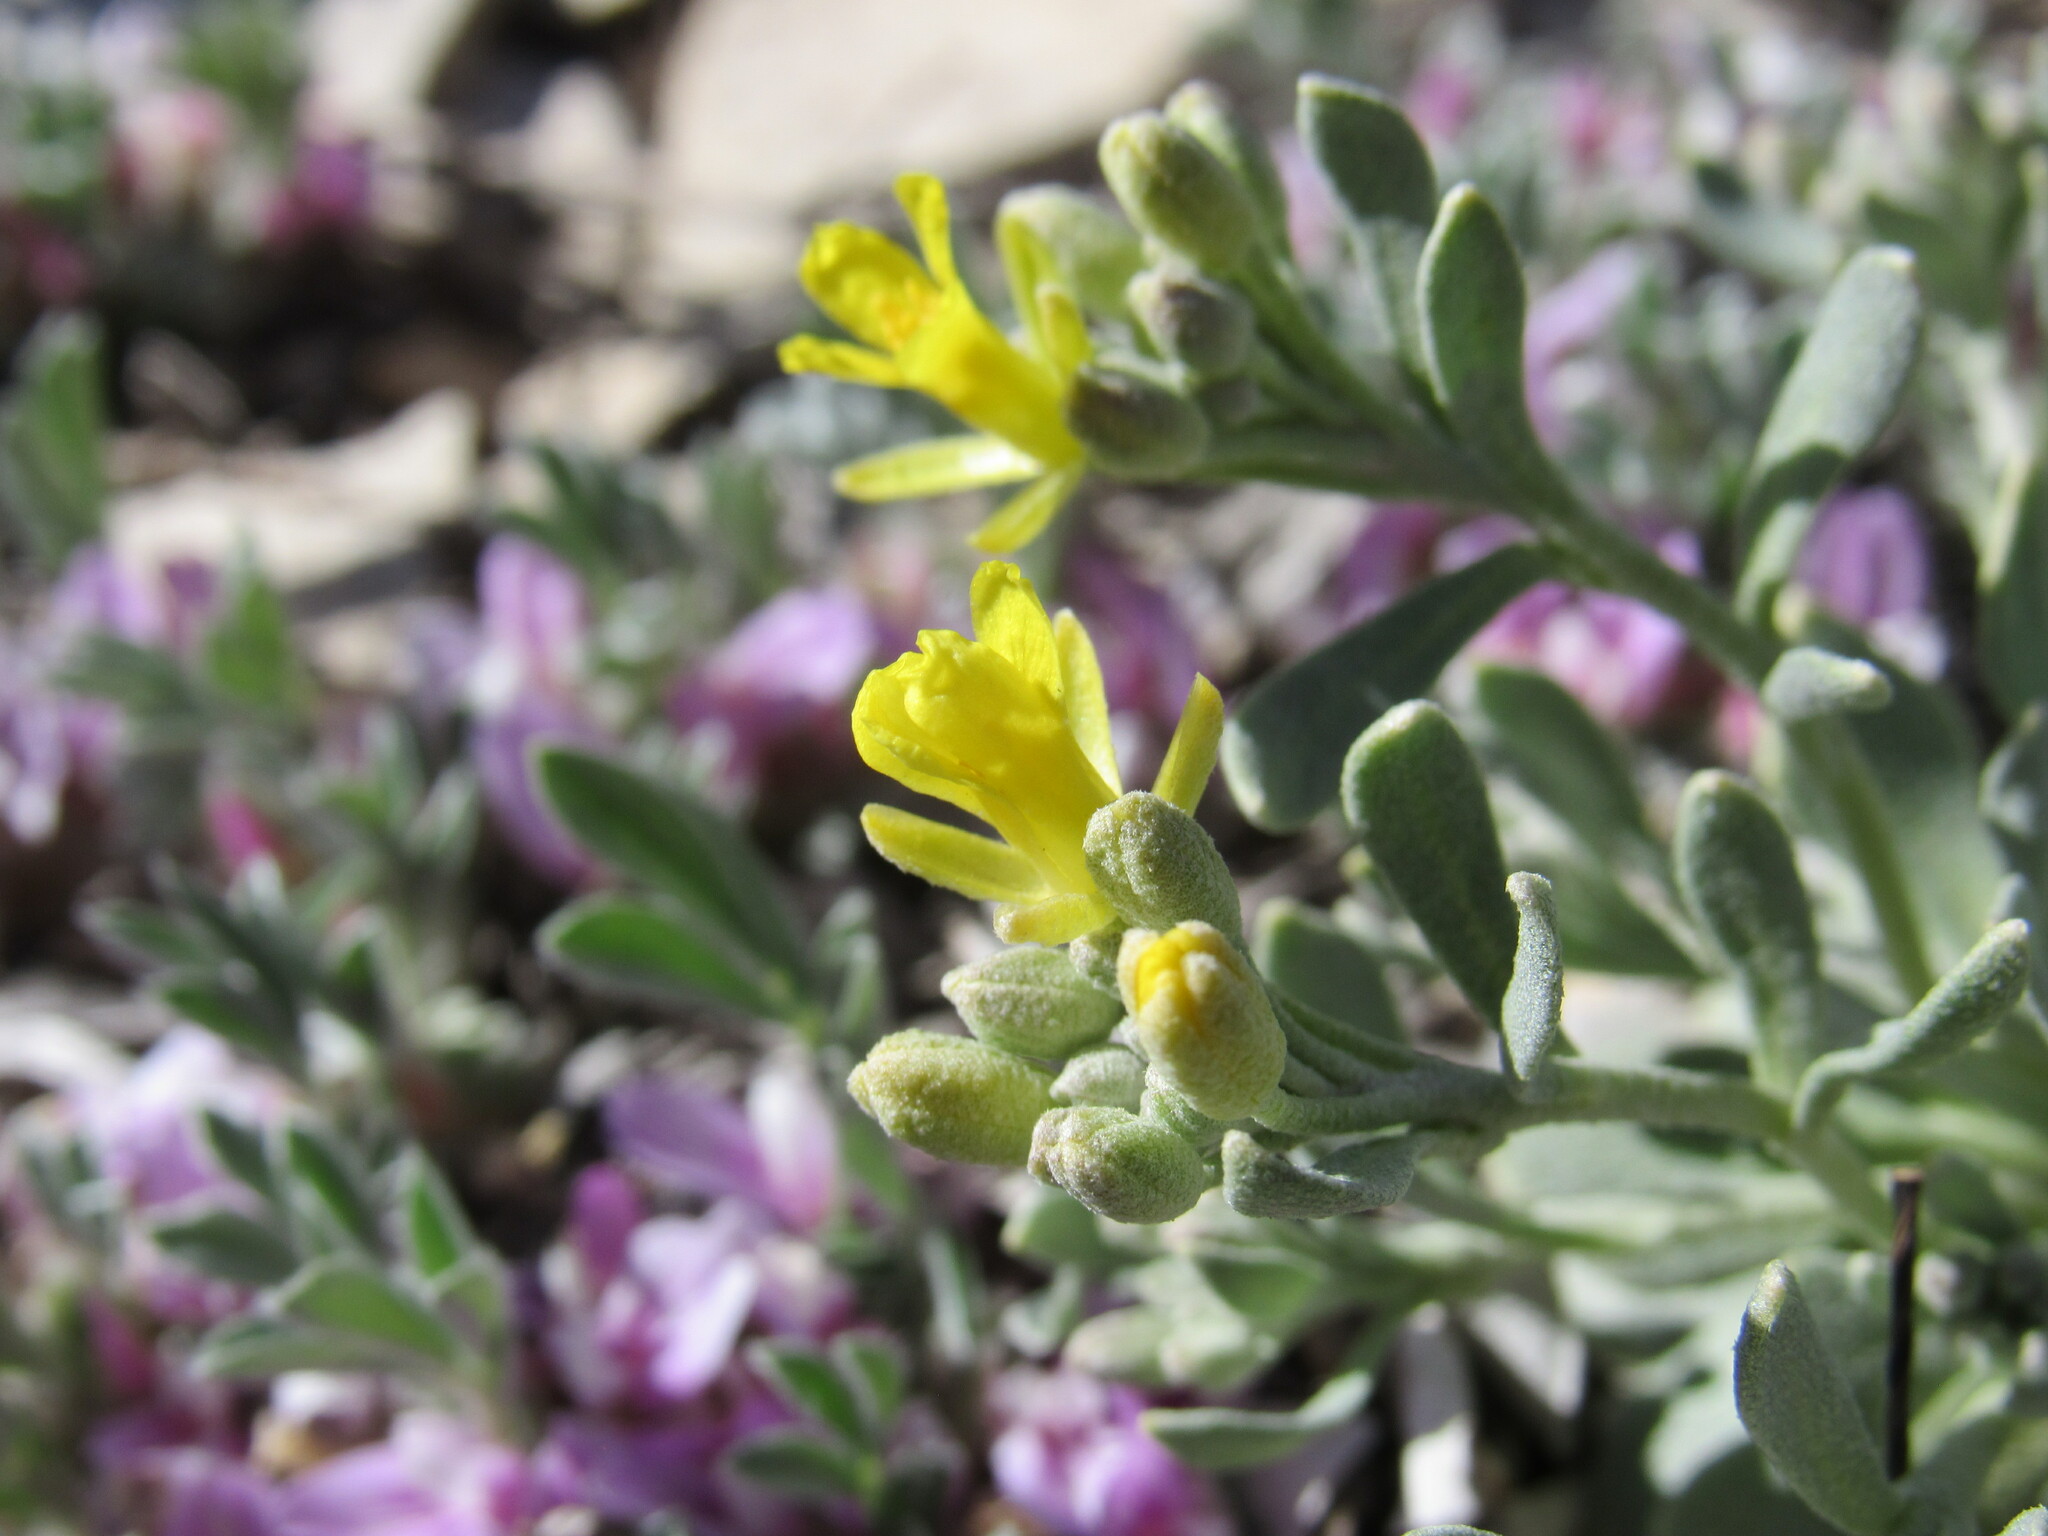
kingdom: Plantae
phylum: Tracheophyta
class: Magnoliopsida
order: Brassicales
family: Brassicaceae
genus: Physaria
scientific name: Physaria bellii
